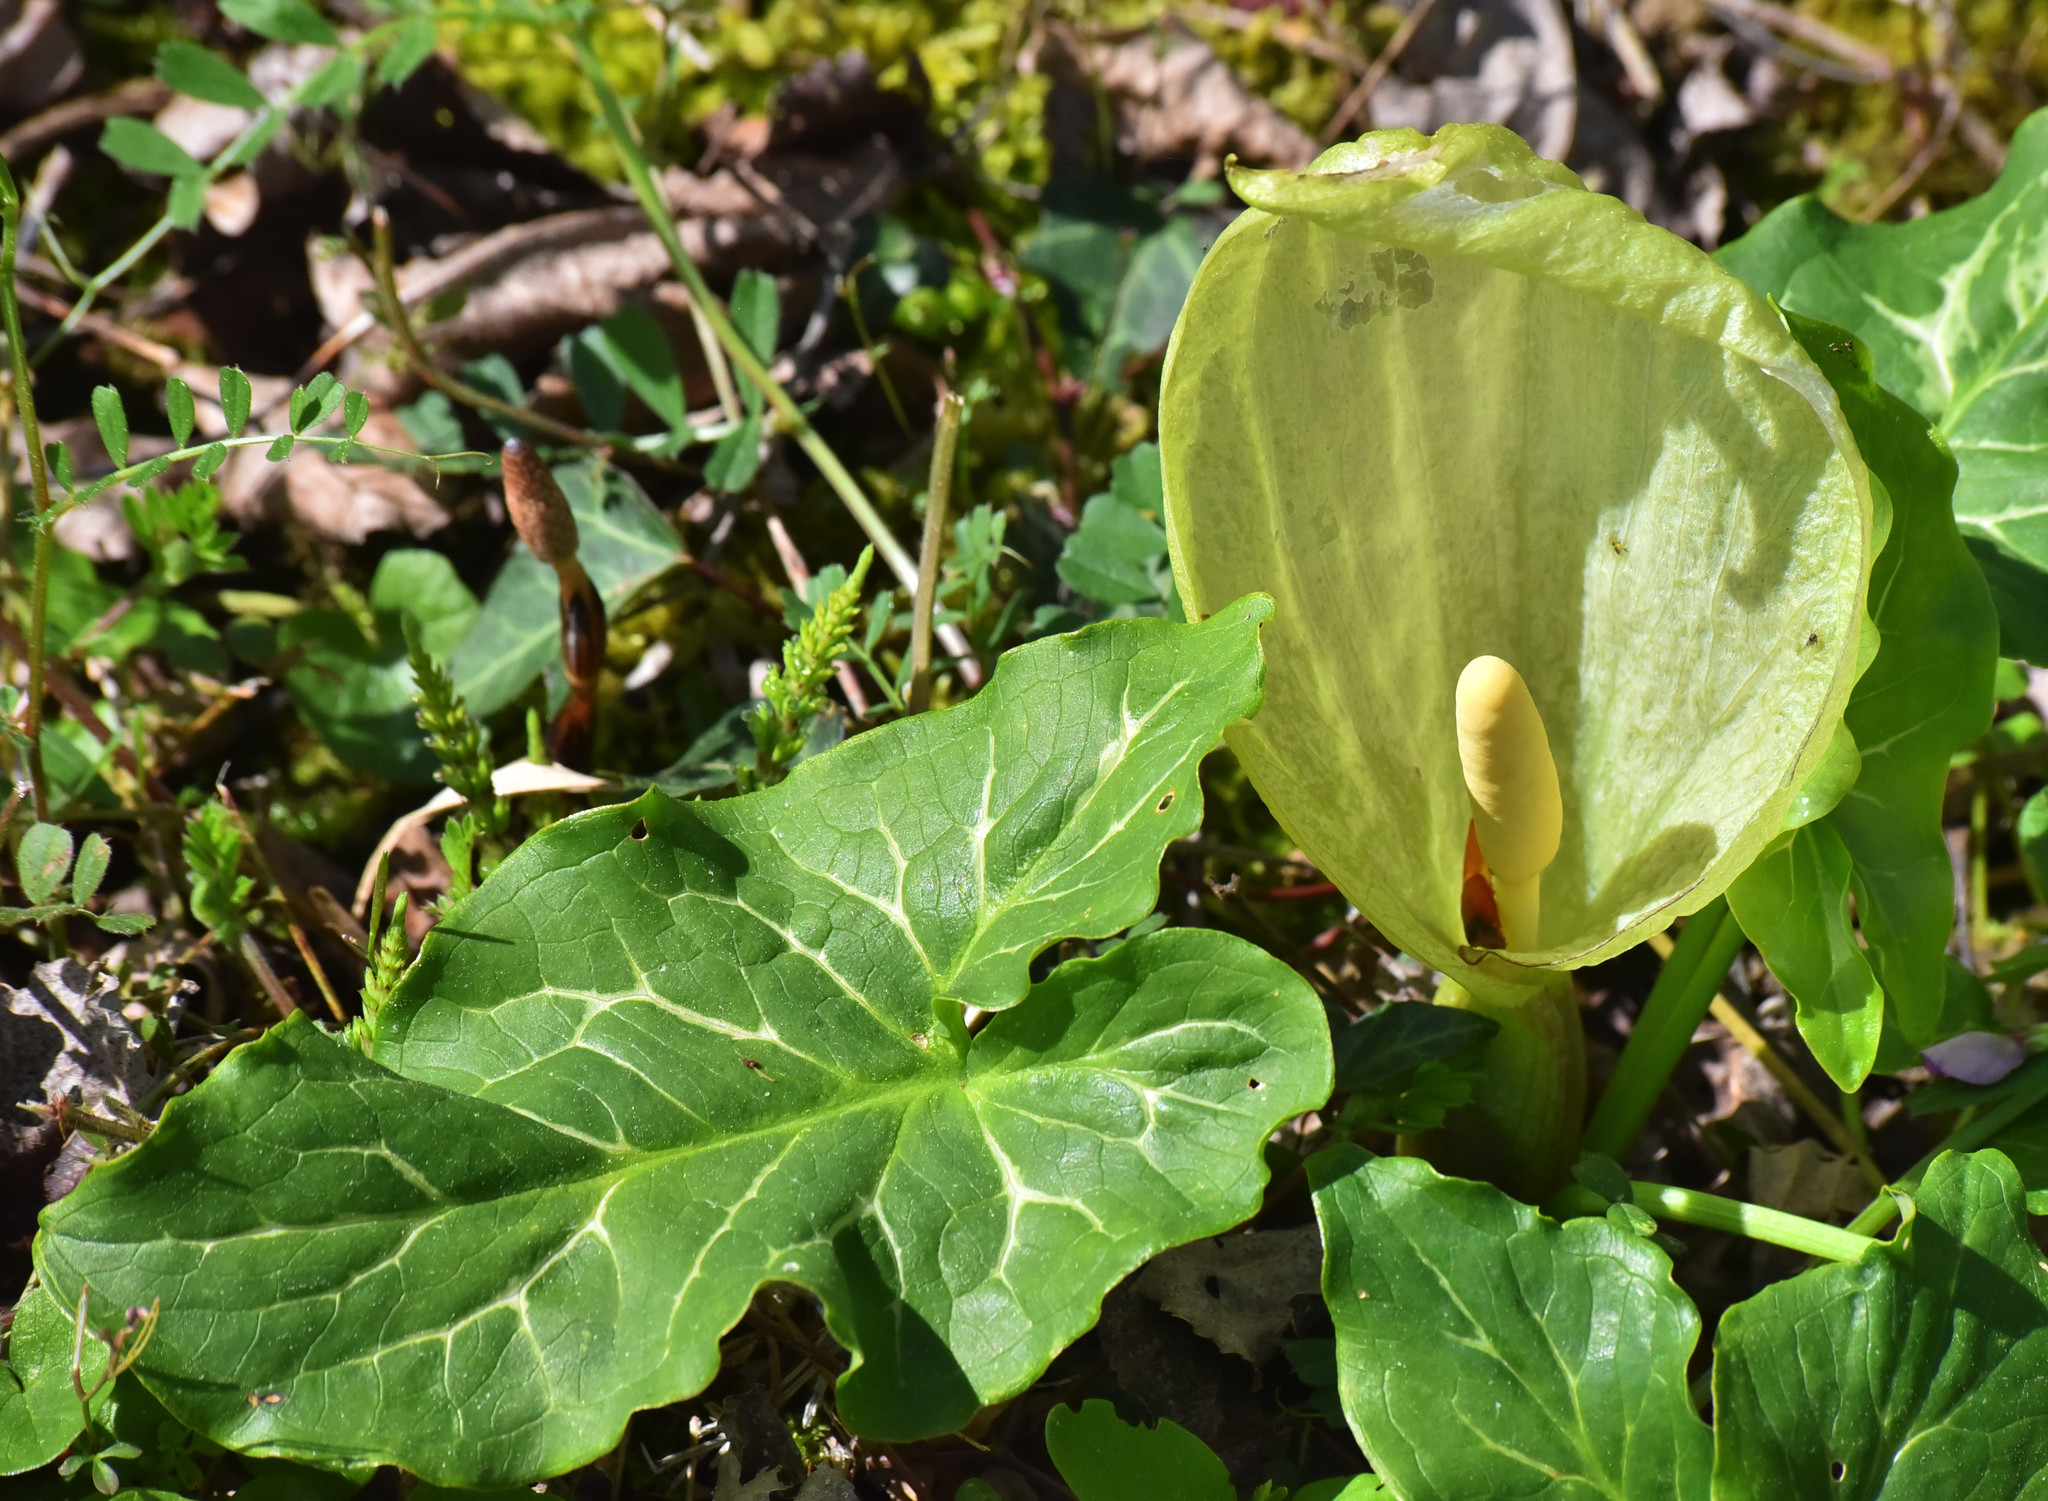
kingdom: Plantae
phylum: Tracheophyta
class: Liliopsida
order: Alismatales
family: Araceae
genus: Arum
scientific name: Arum italicum
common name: Italian lords-and-ladies
